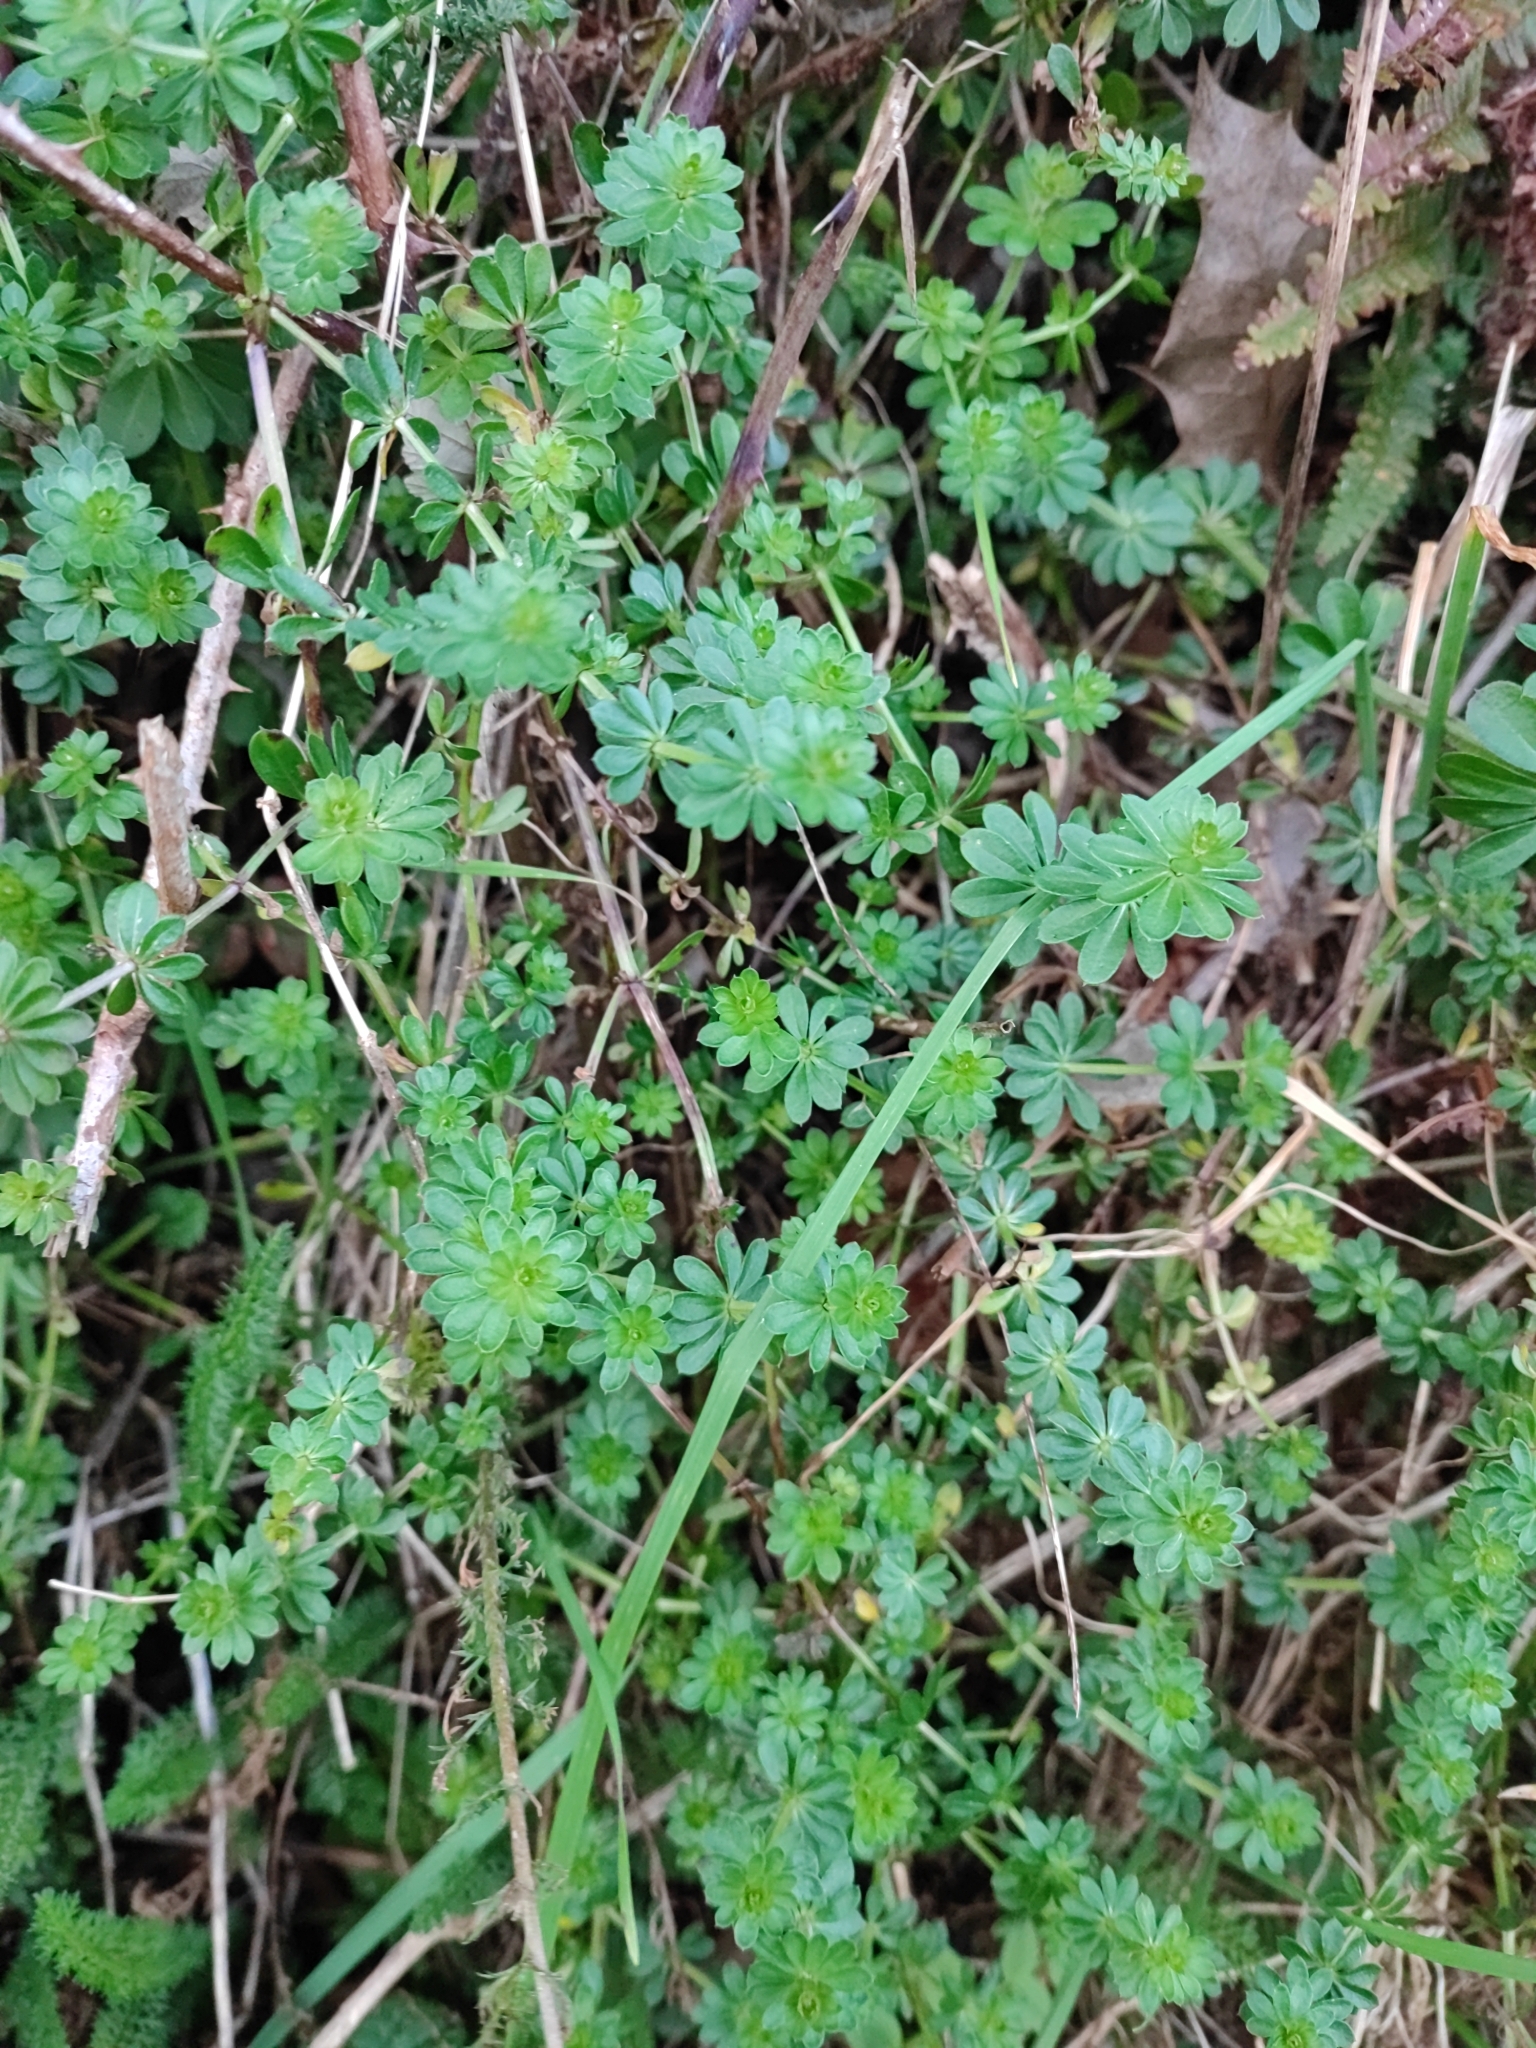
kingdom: Plantae
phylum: Tracheophyta
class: Magnoliopsida
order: Gentianales
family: Rubiaceae
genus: Galium
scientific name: Galium mollugo
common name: Hedge bedstraw
